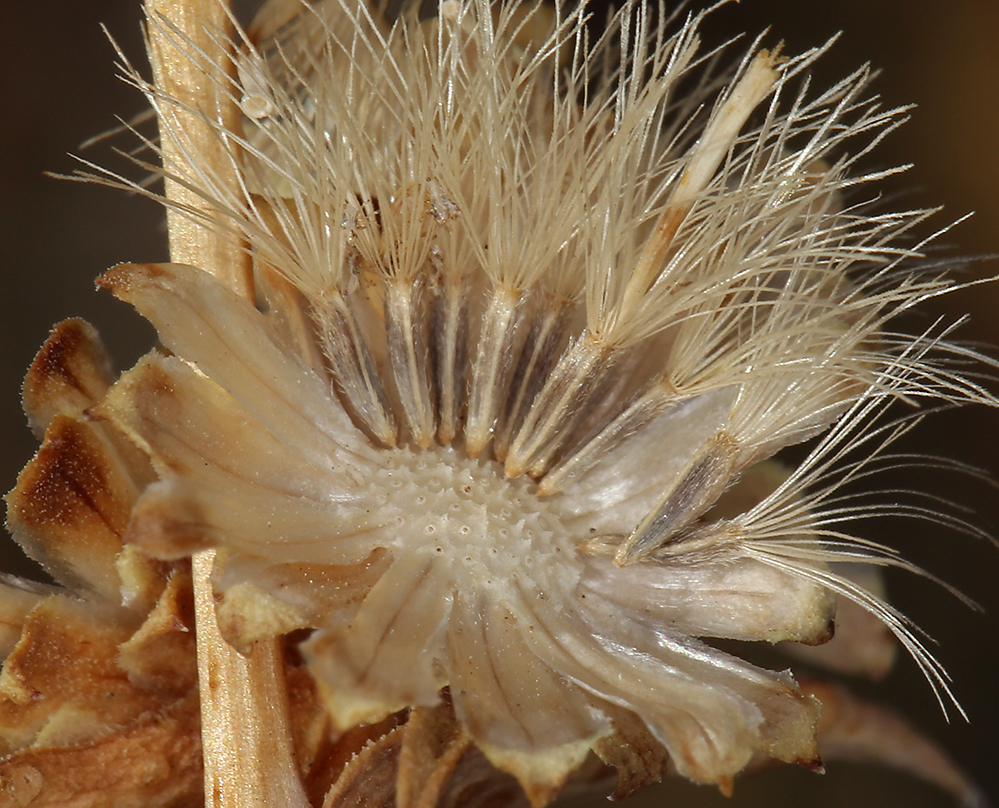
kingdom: Plantae
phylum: Tracheophyta
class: Magnoliopsida
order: Asterales
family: Asteraceae
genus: Pyrrocoma
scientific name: Pyrrocoma racemosa
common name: Clustered goldenweed
